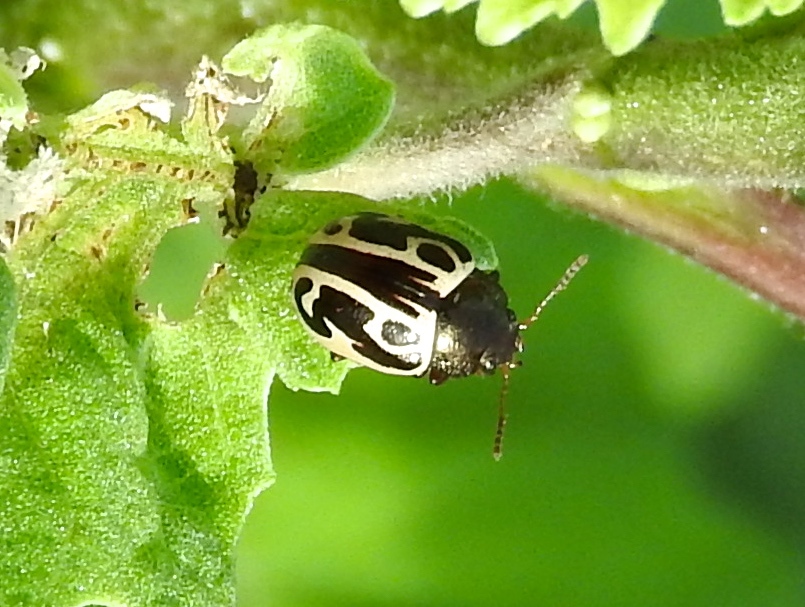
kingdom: Animalia
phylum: Arthropoda
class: Insecta
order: Coleoptera
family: Chrysomelidae
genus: Calligrapha
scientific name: Calligrapha
